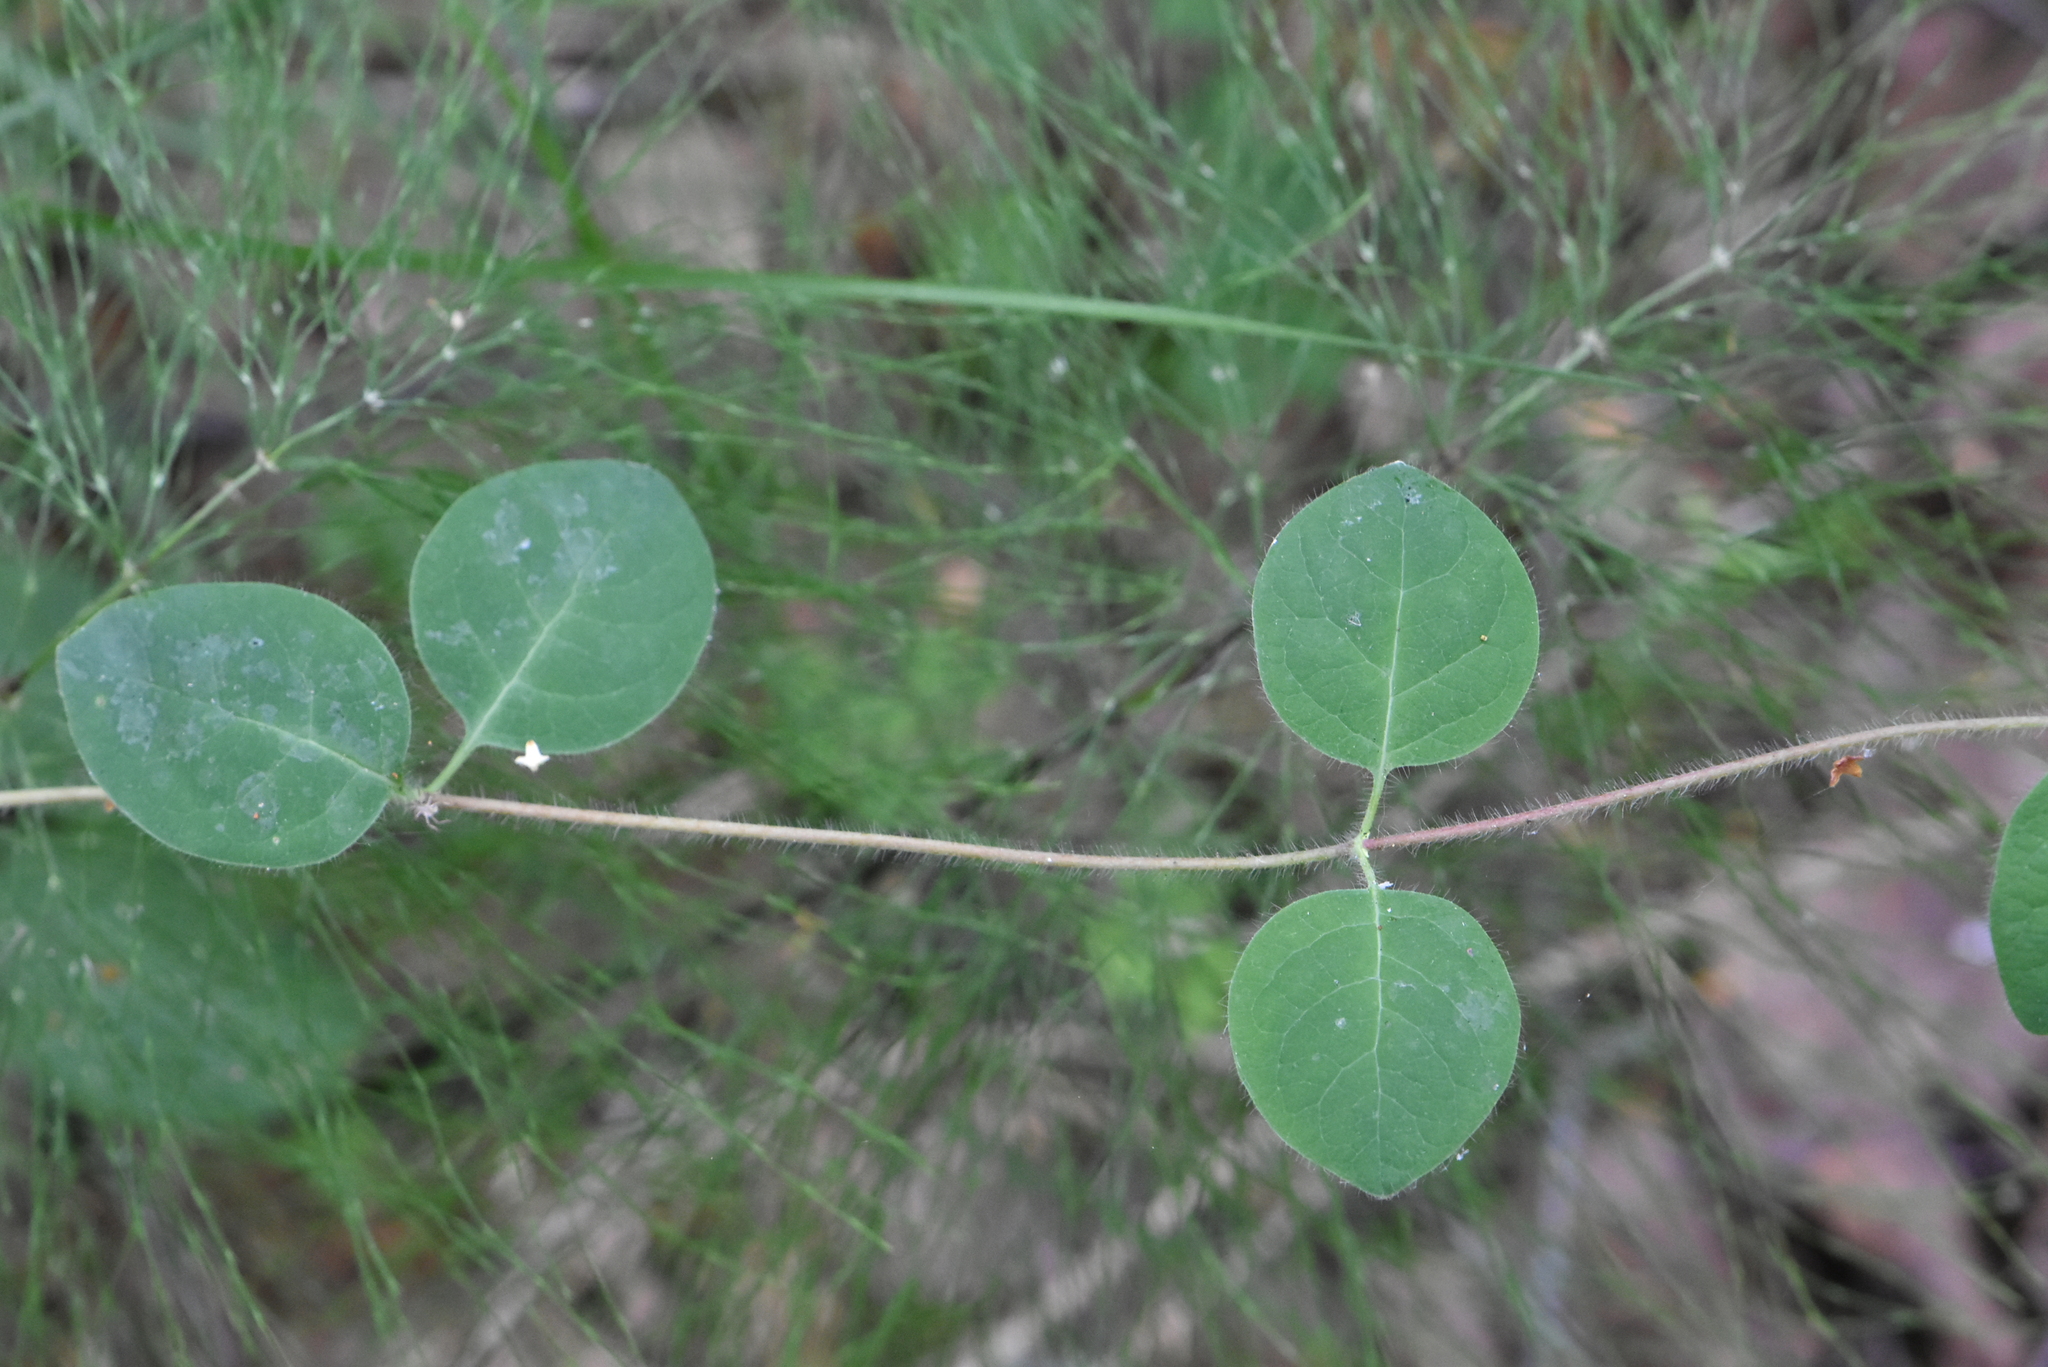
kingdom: Plantae
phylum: Tracheophyta
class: Magnoliopsida
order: Dipsacales
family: Caprifoliaceae
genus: Lonicera
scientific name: Lonicera caprifolium
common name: Perfoliate honeysuckle
